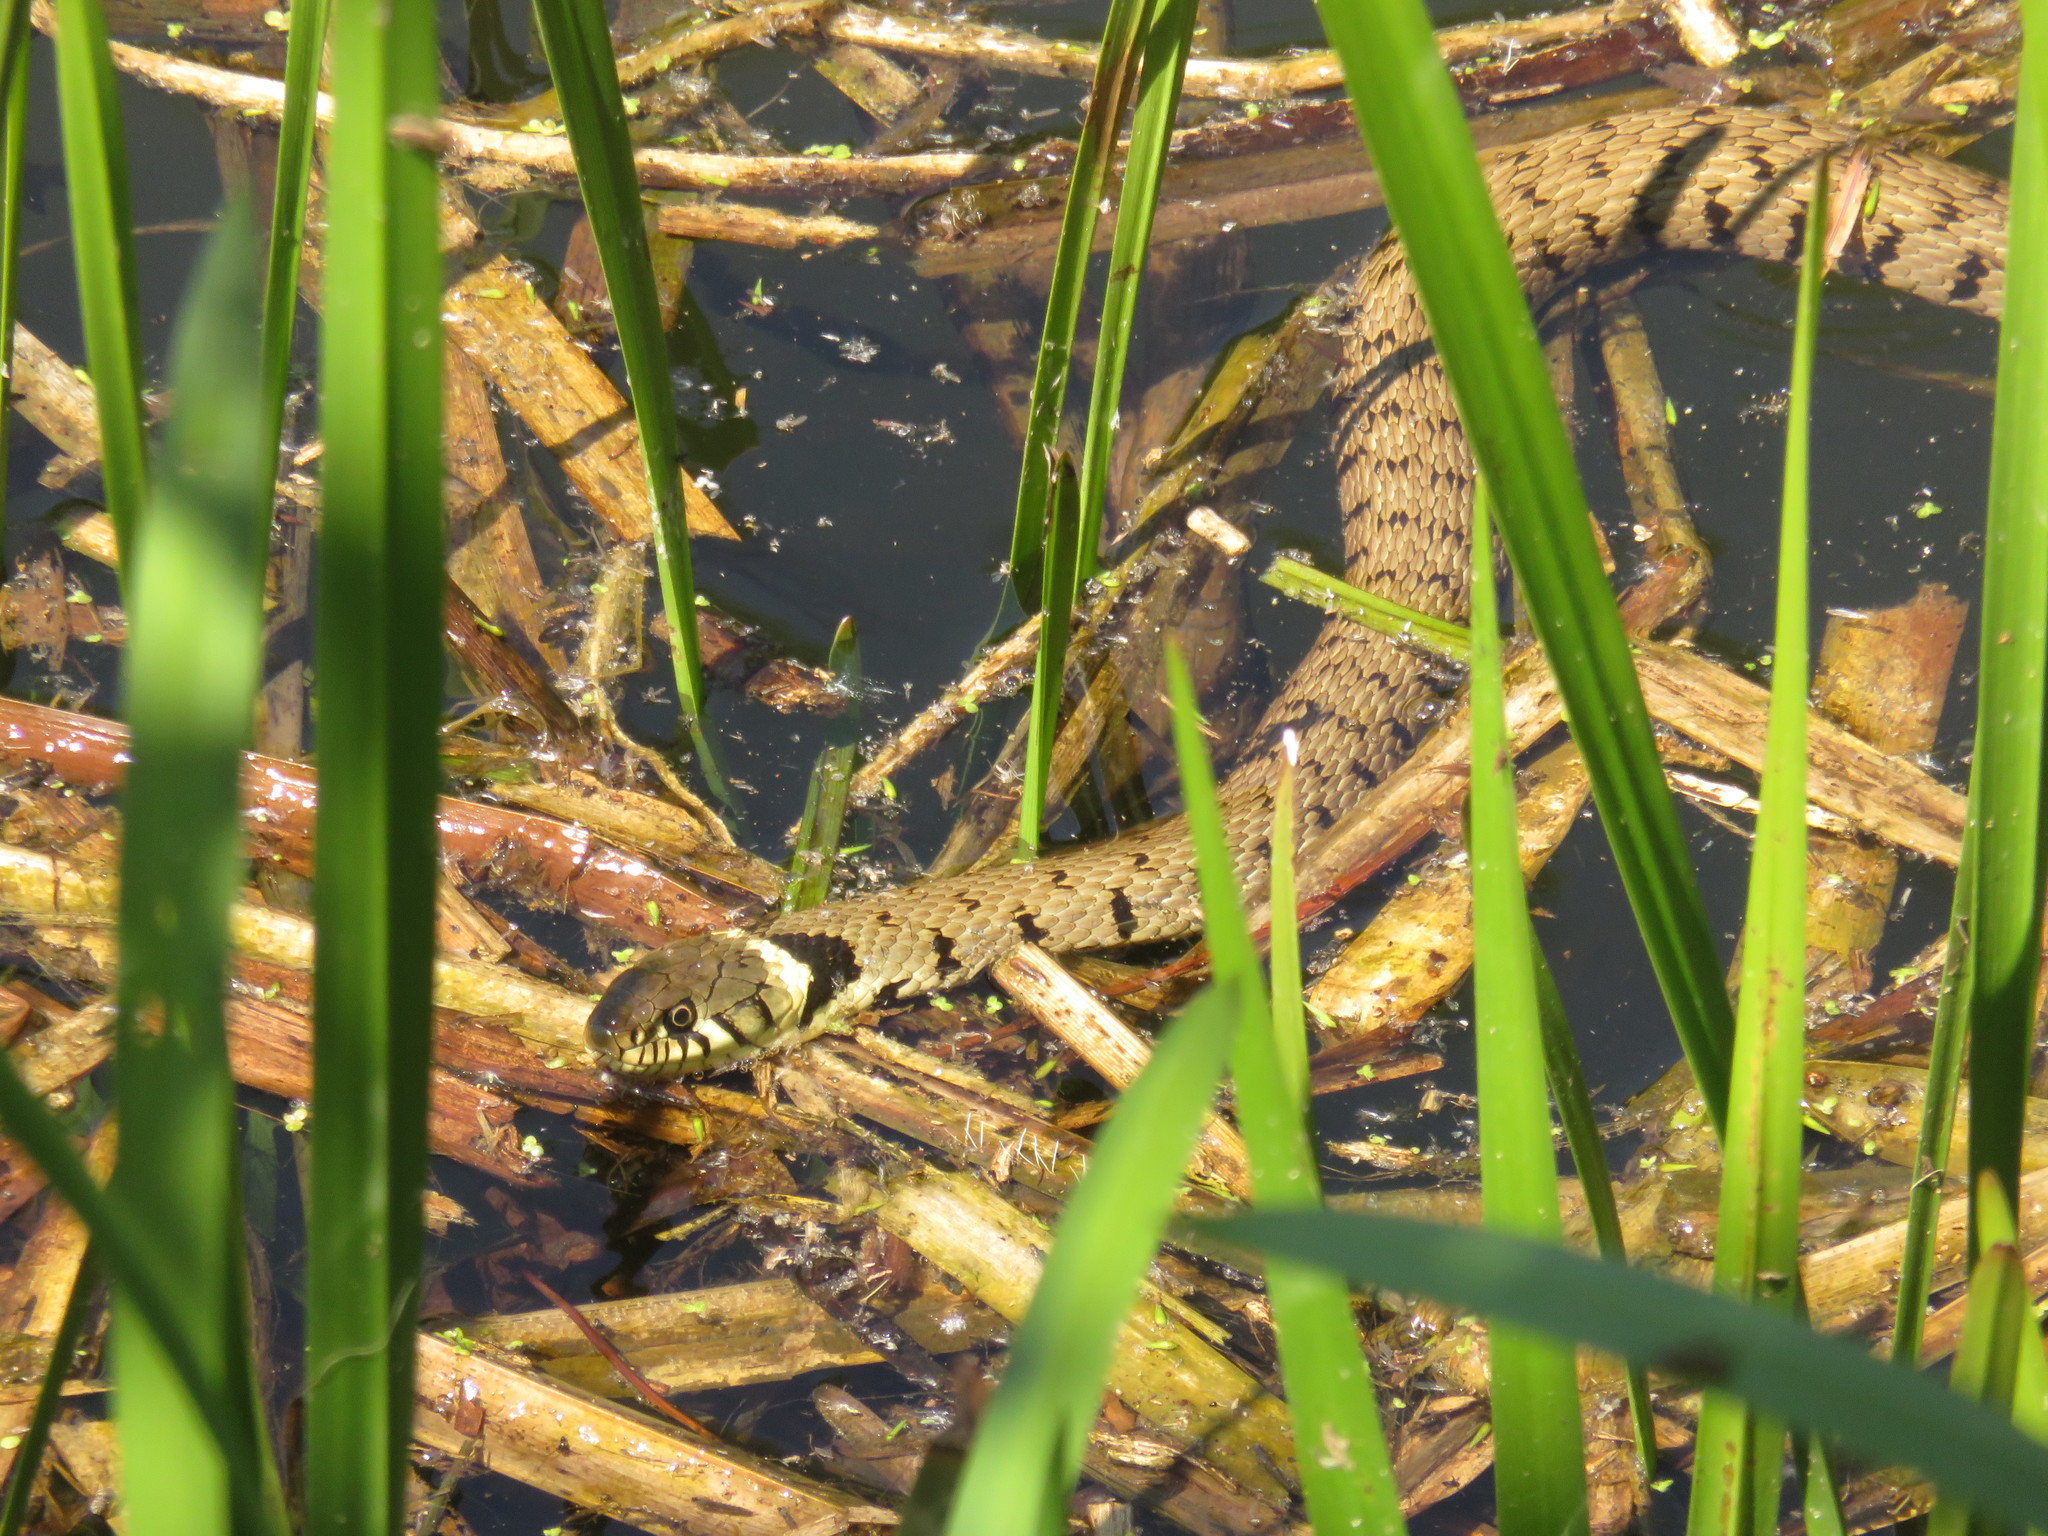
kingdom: Animalia
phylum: Chordata
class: Squamata
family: Colubridae
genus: Natrix
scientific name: Natrix helvetica
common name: Banded grass snake
